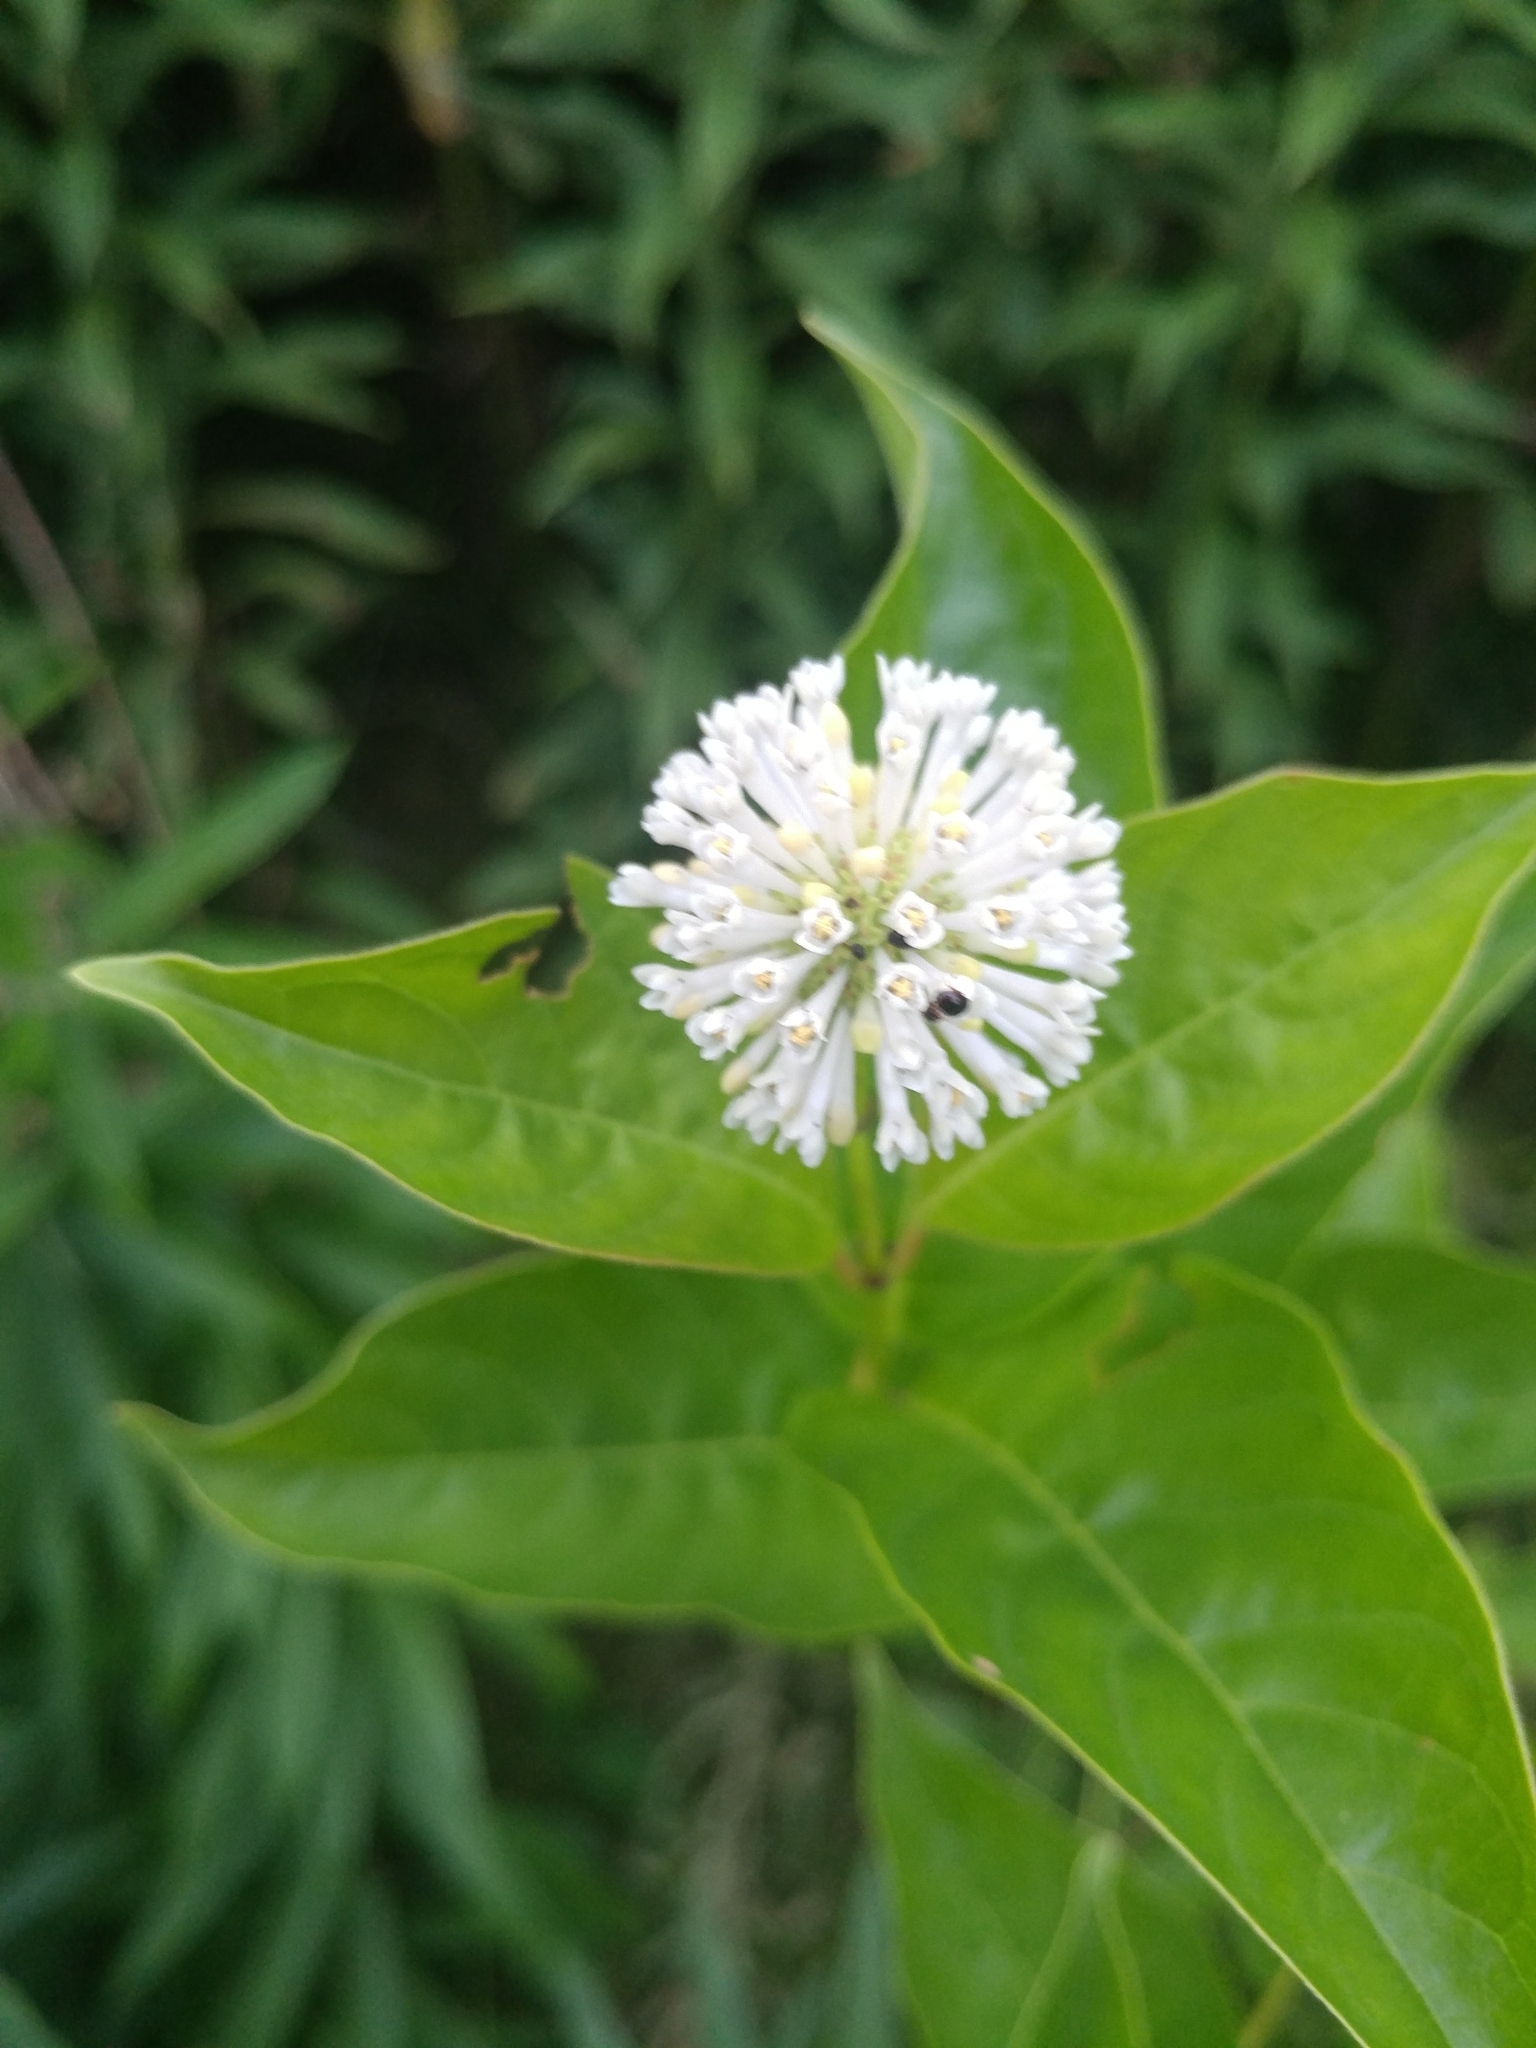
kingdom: Plantae
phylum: Tracheophyta
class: Magnoliopsida
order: Gentianales
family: Rubiaceae
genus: Cephalanthus
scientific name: Cephalanthus occidentalis
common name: Button-willow
